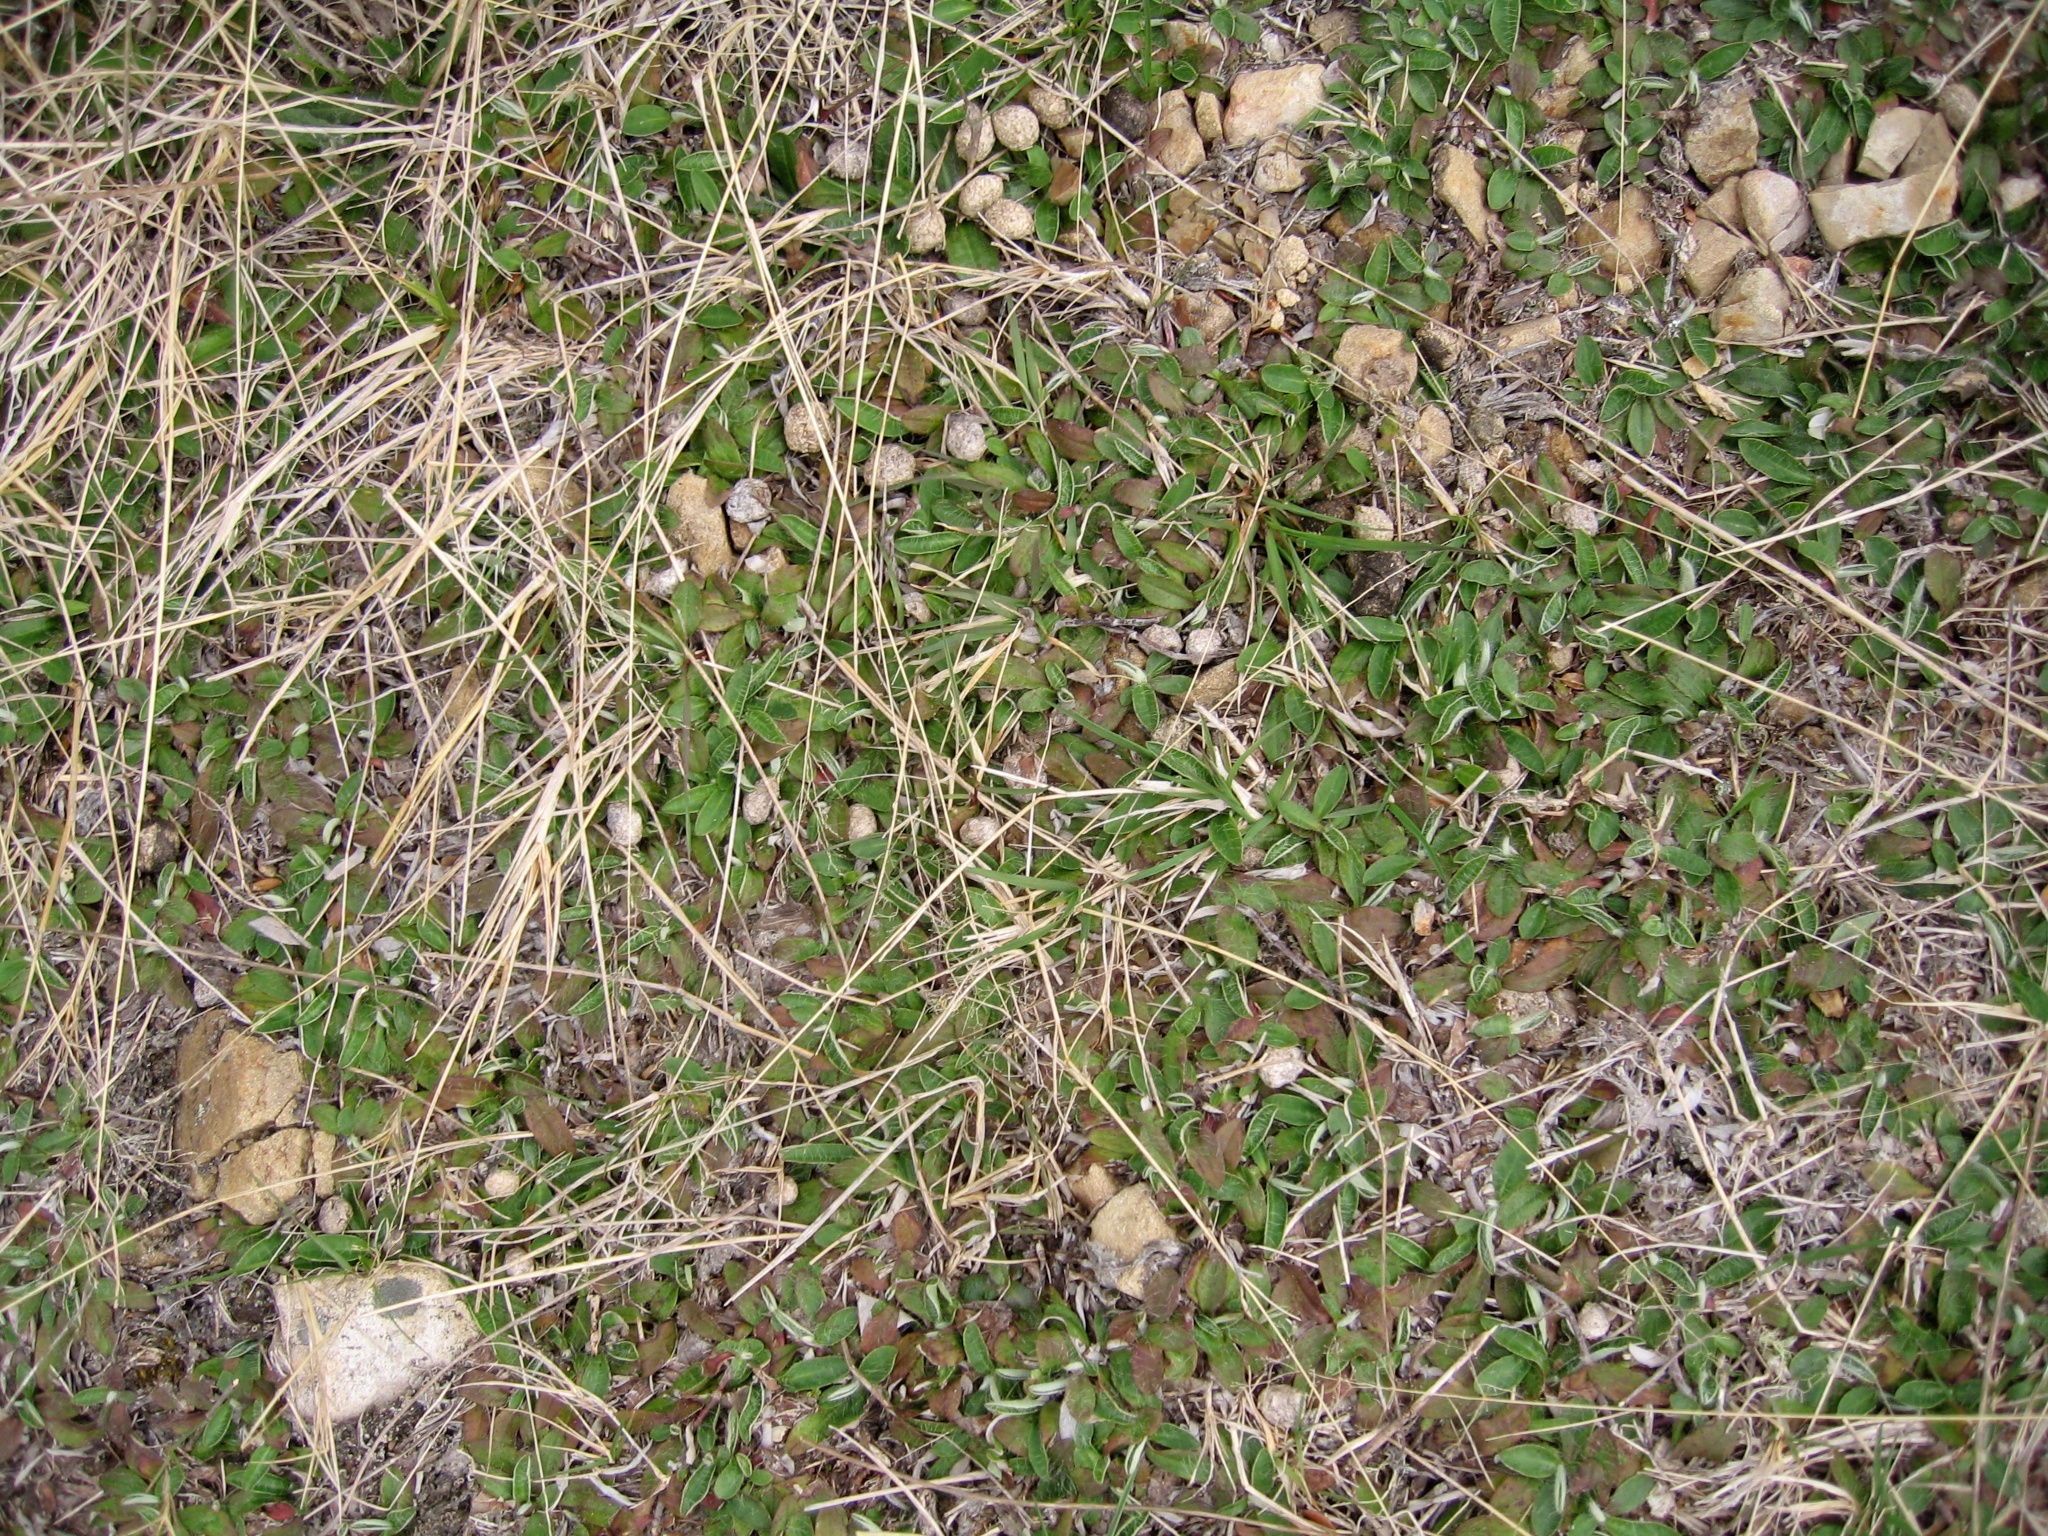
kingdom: Plantae
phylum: Tracheophyta
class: Magnoliopsida
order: Asterales
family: Asteraceae
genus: Pilosella
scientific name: Pilosella officinarum
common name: Mouse-ear hawkweed
